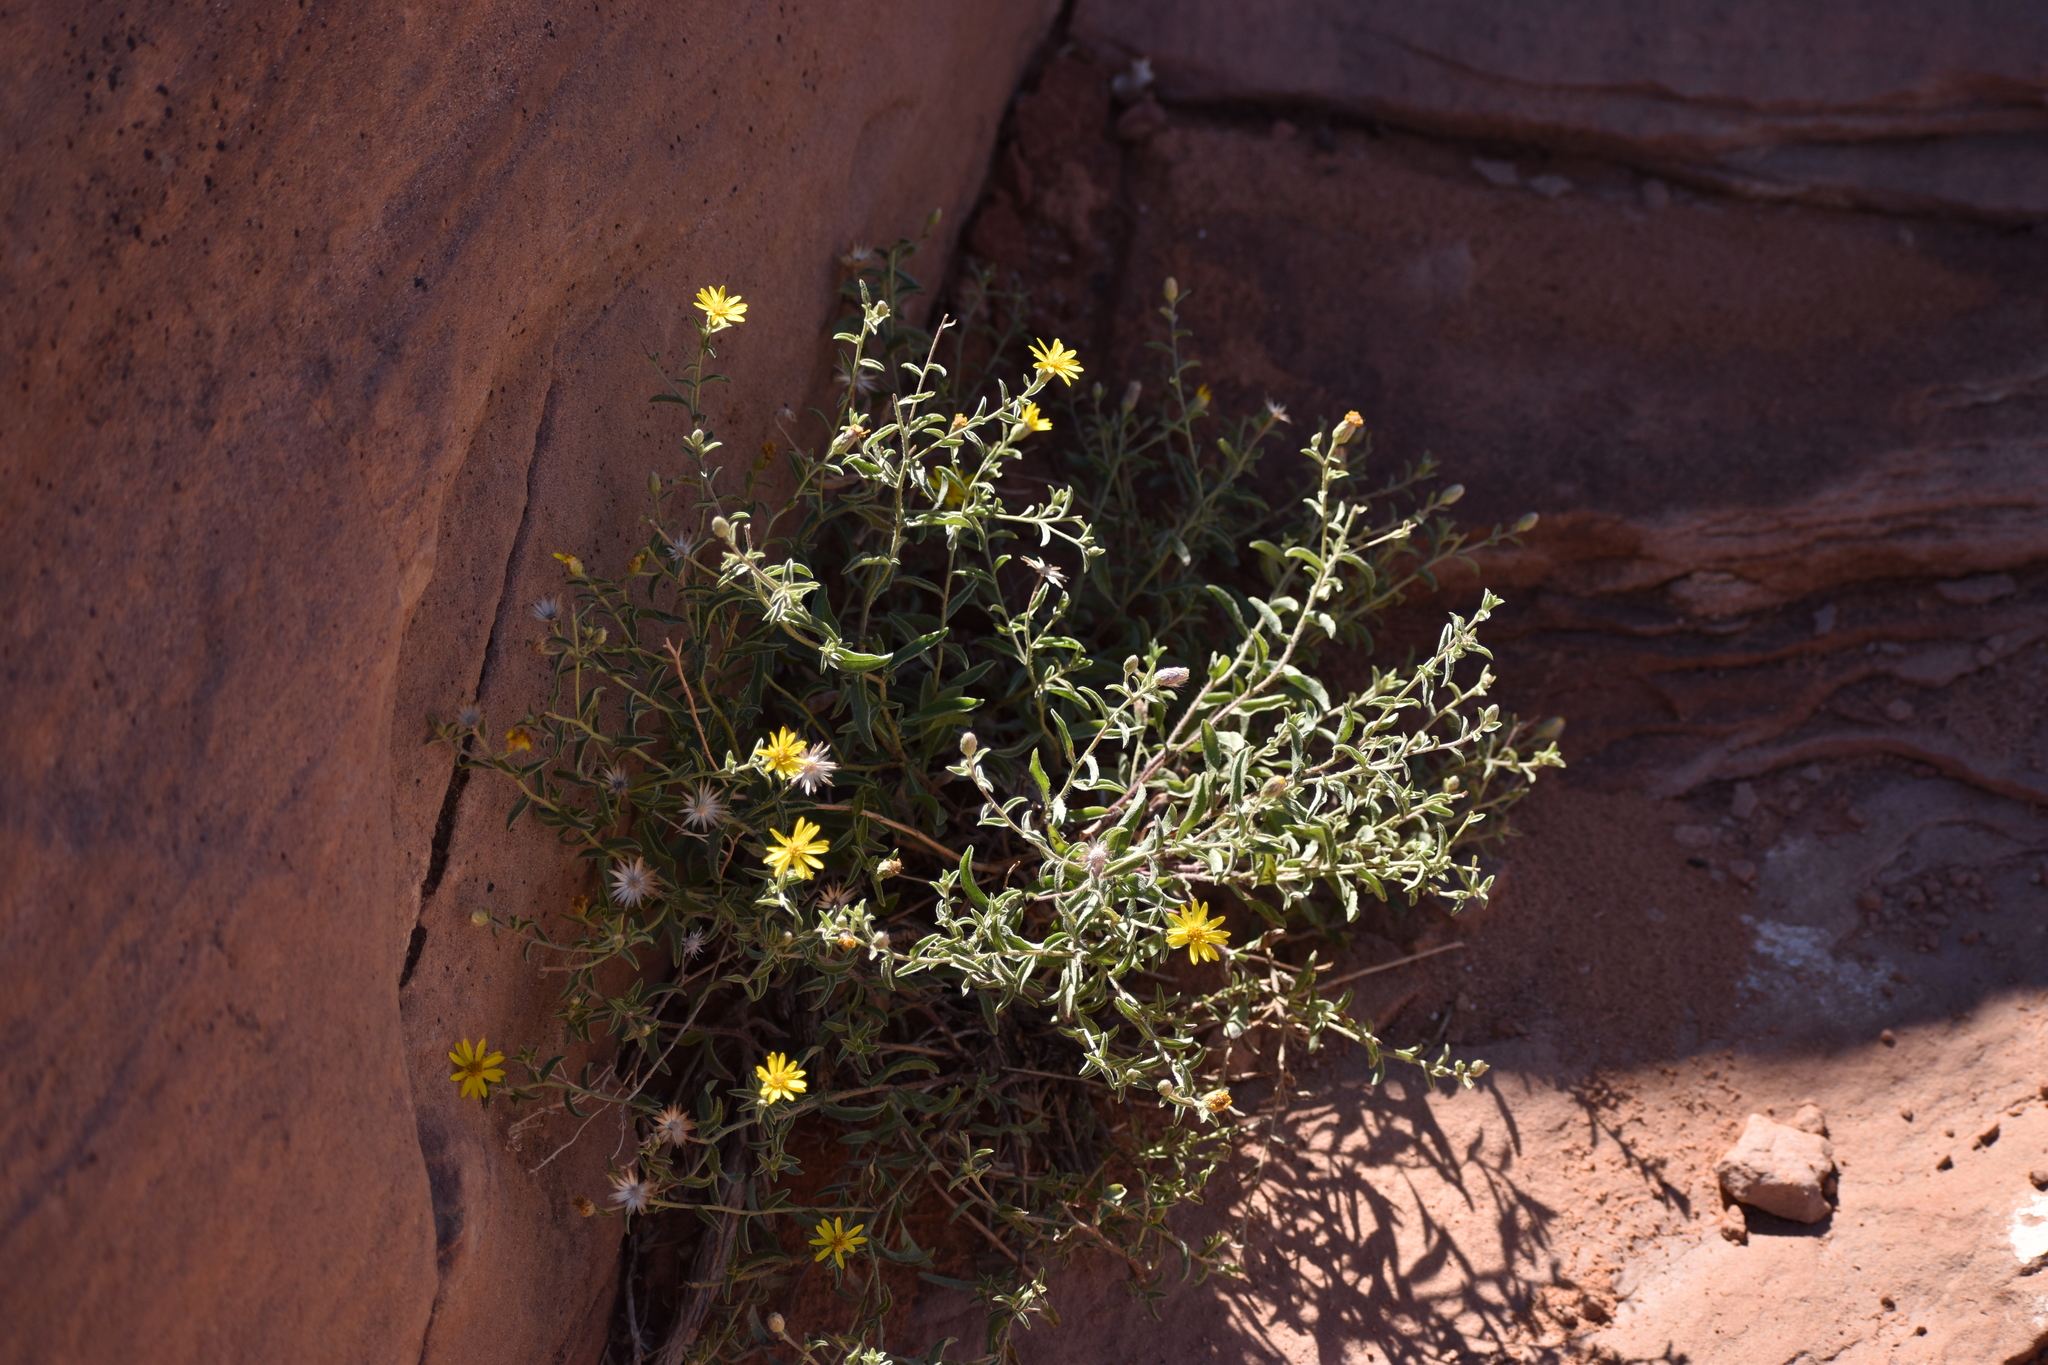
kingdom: Plantae
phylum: Tracheophyta
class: Magnoliopsida
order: Asterales
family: Asteraceae
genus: Heterotheca
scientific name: Heterotheca polothrix
